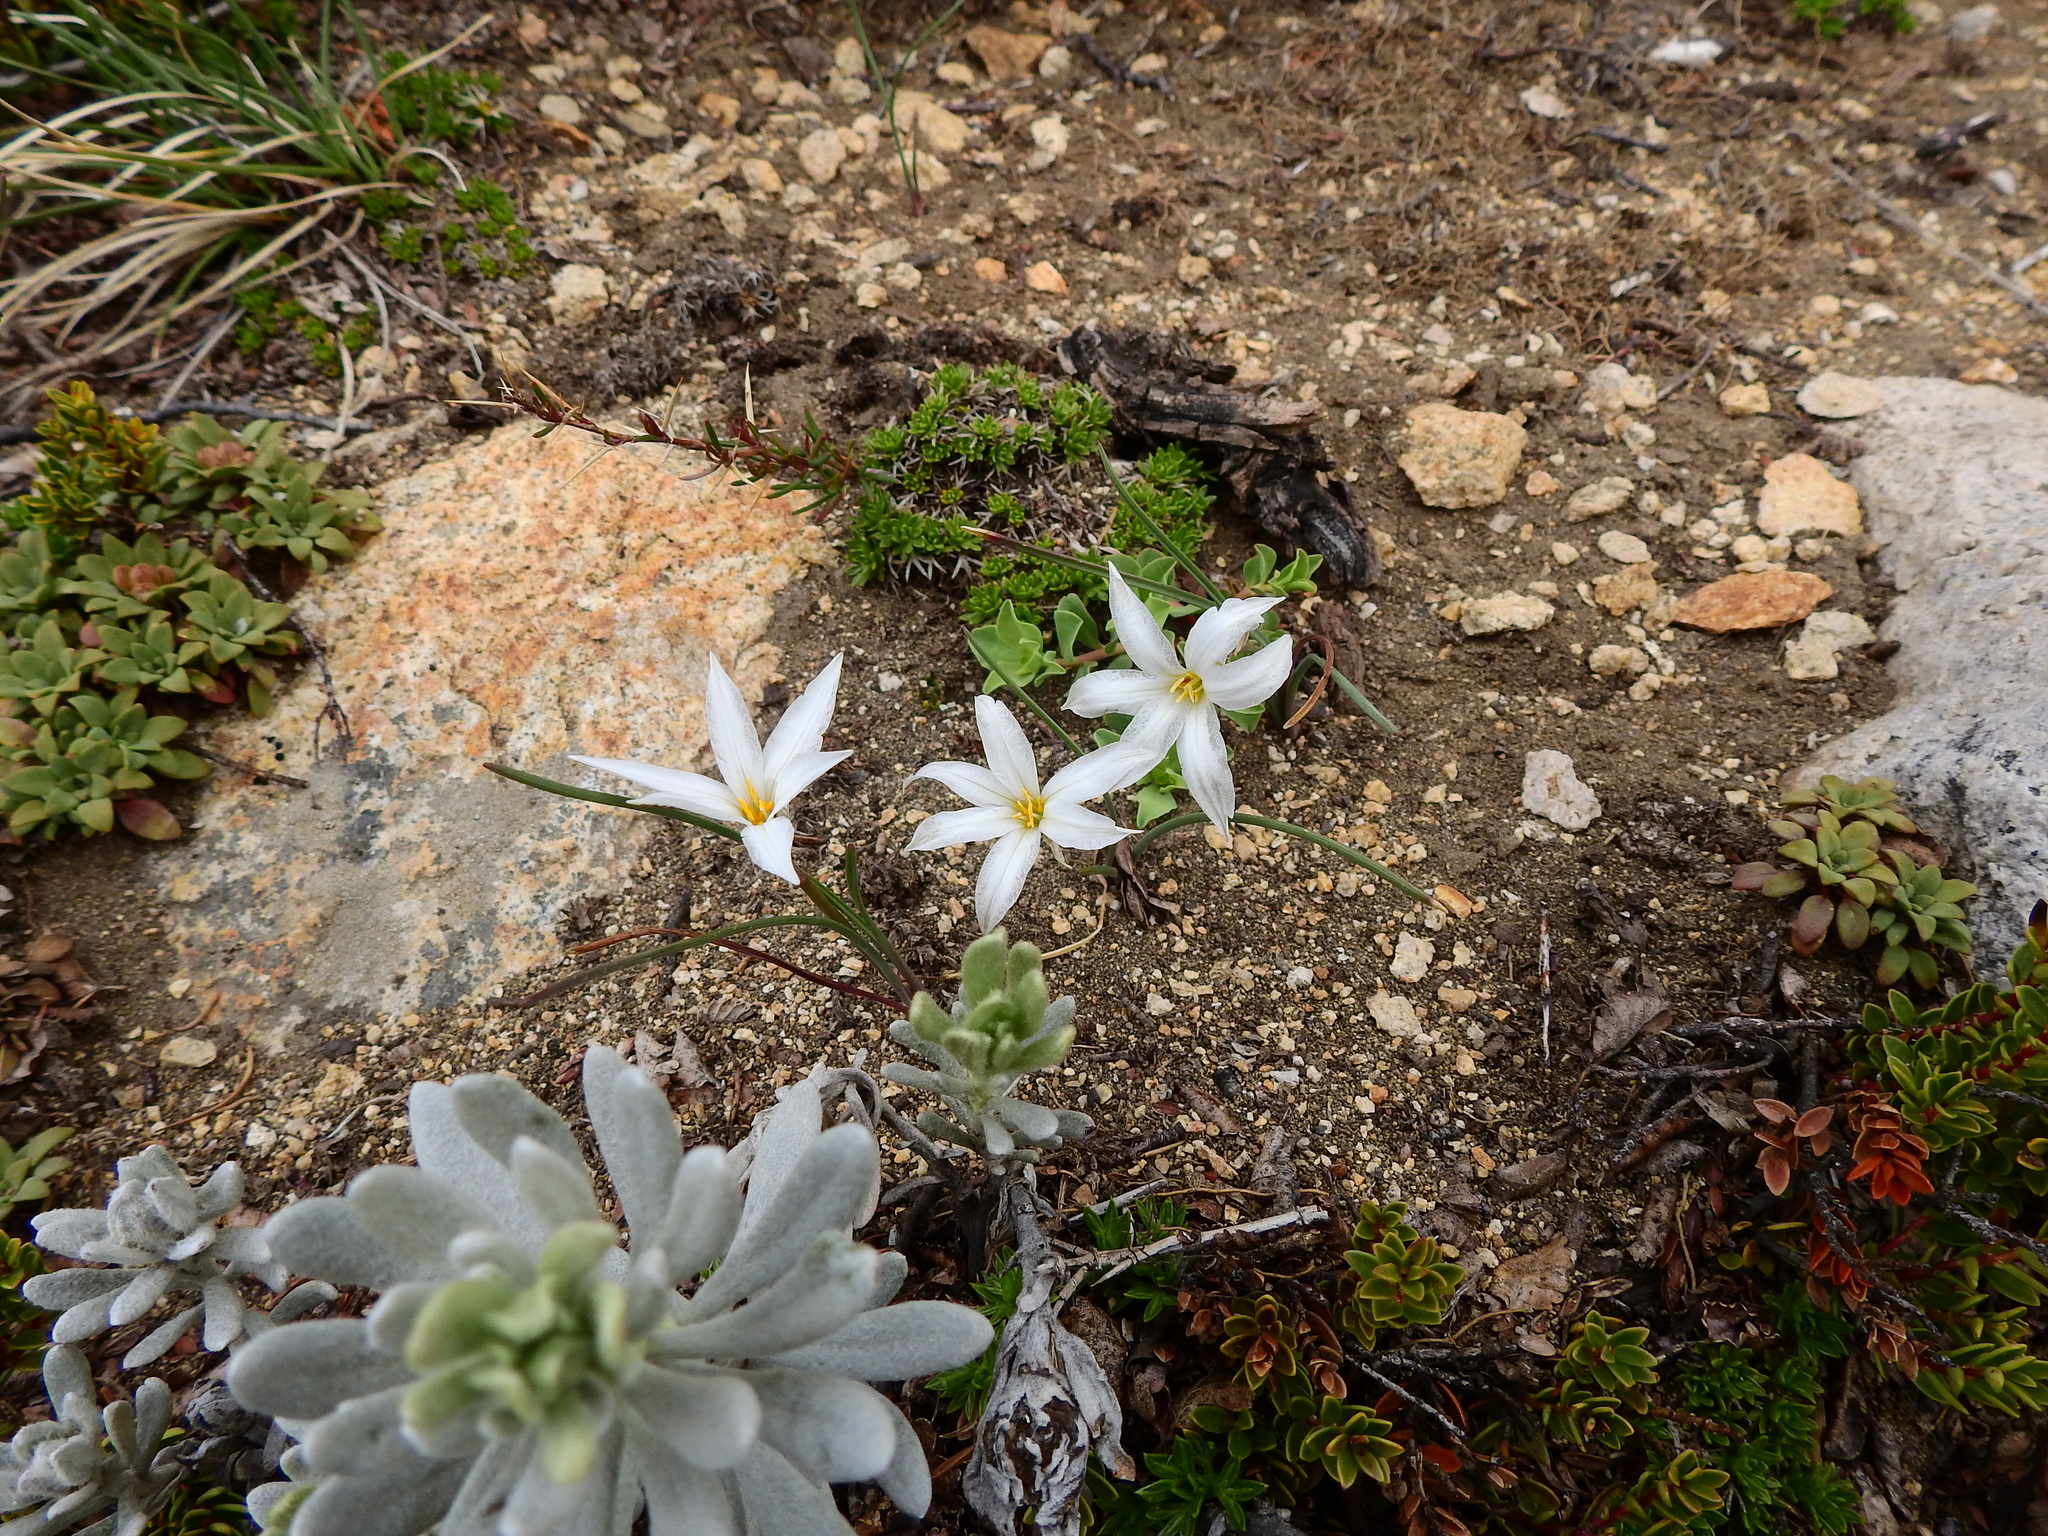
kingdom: Plantae
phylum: Tracheophyta
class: Liliopsida
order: Asparagales
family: Amaryllidaceae
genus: Tristagma
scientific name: Tristagma patagonicum
